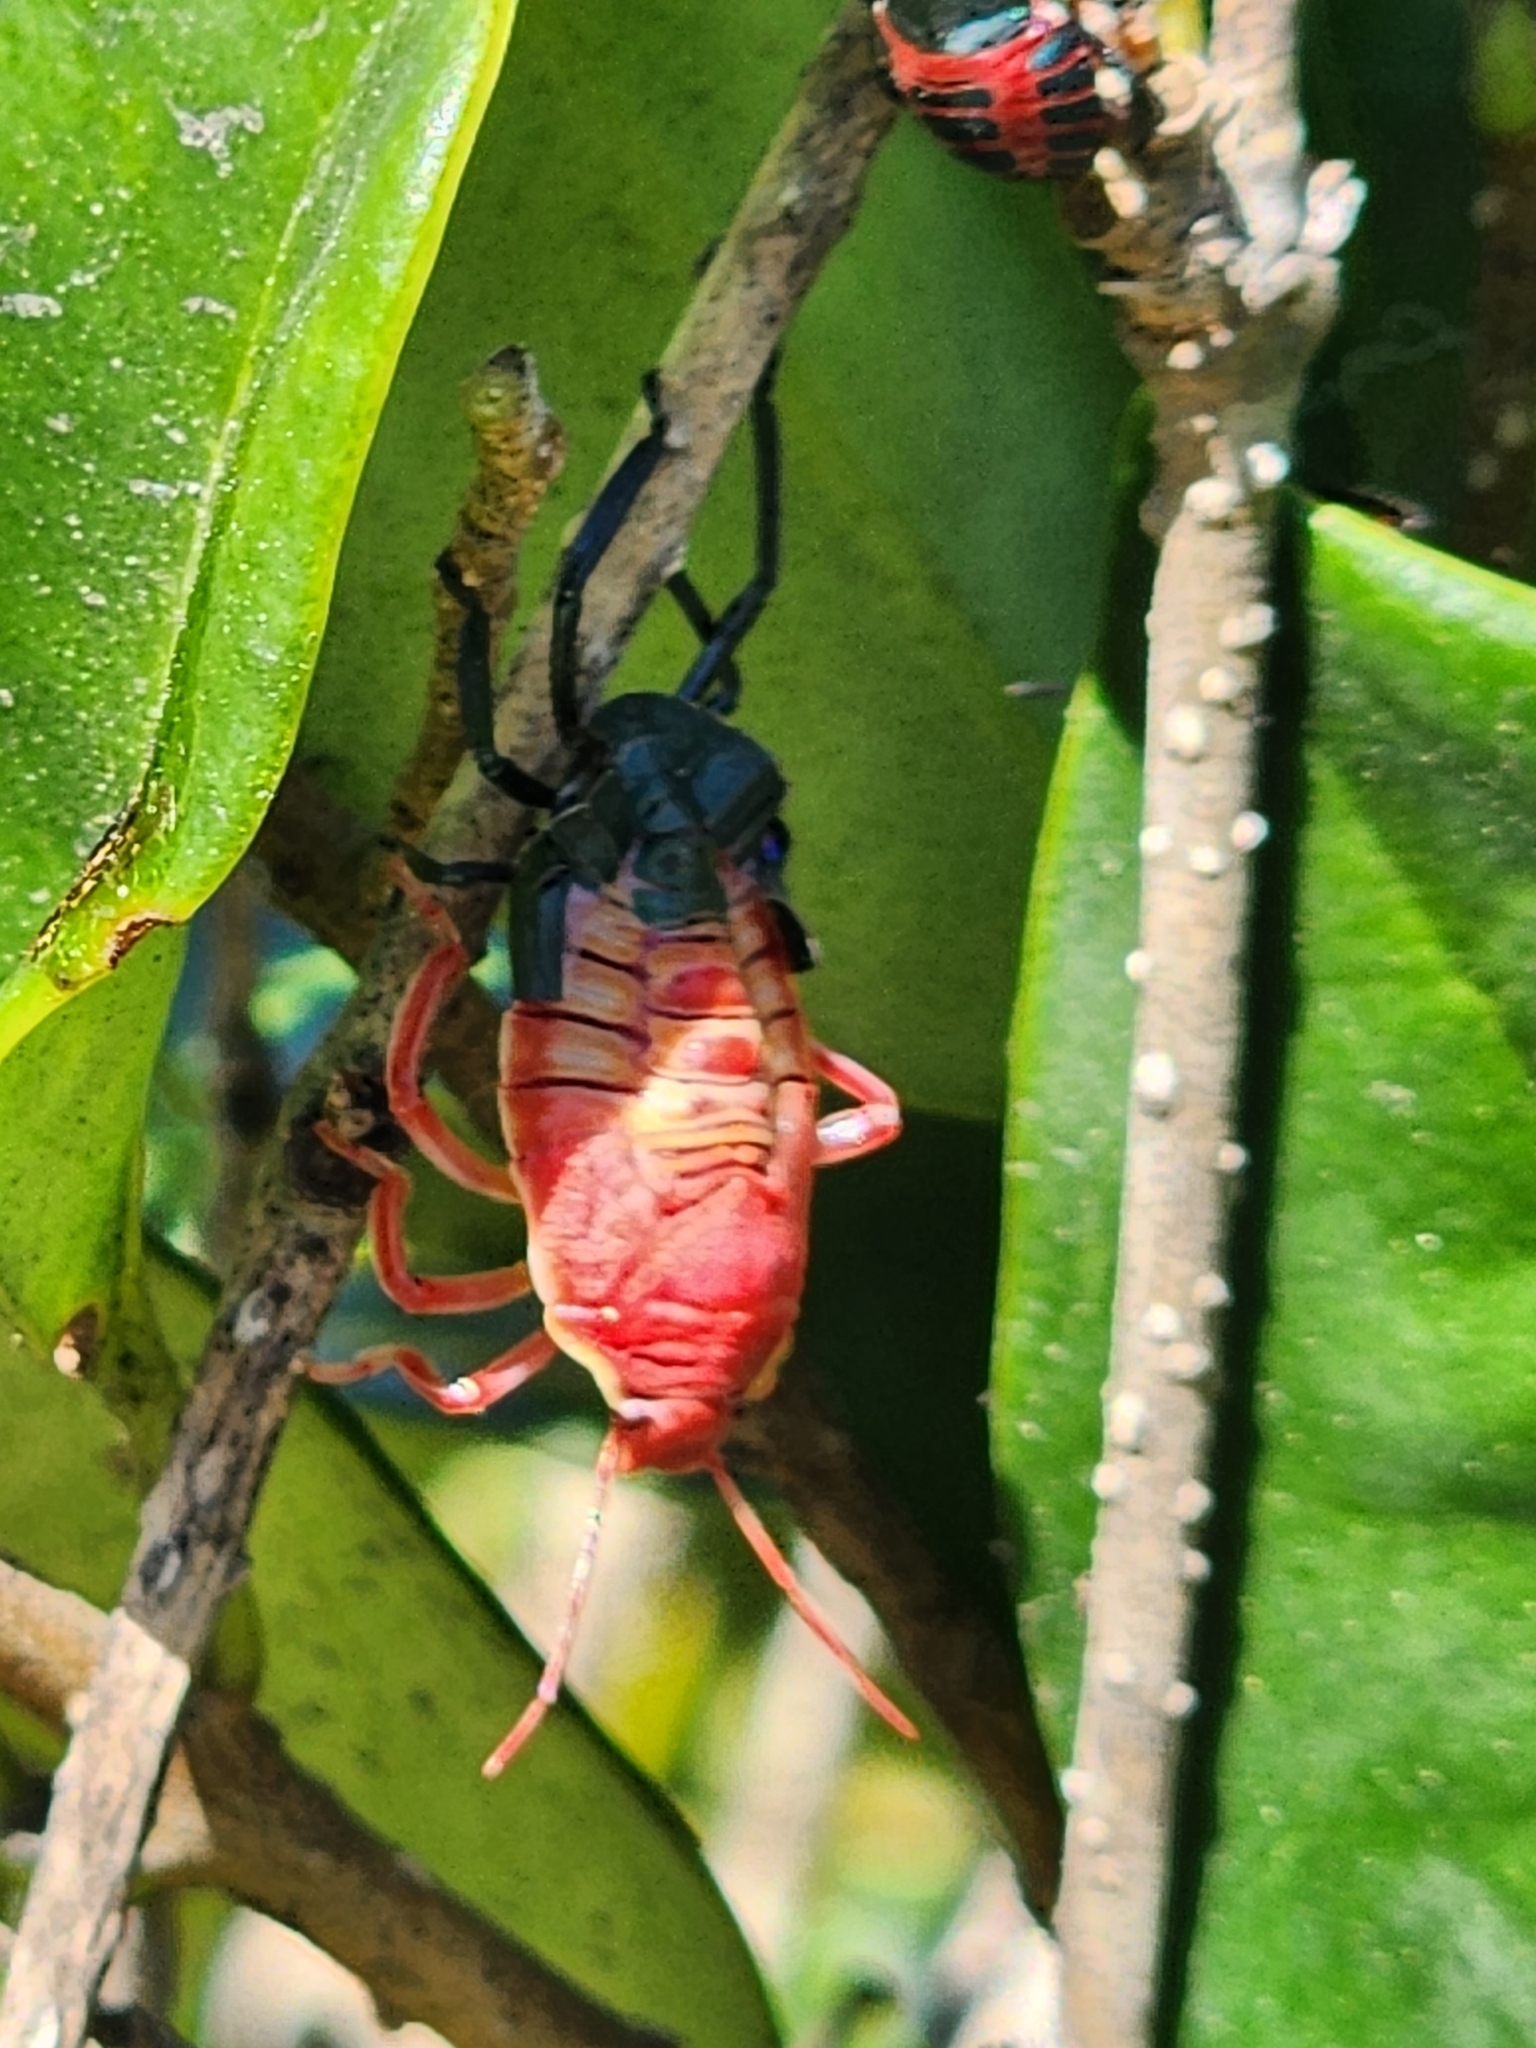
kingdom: Animalia
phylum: Arthropoda
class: Insecta
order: Hemiptera
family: Pentatomidae
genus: Pellaea
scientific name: Pellaea stictica
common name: Stink bug
